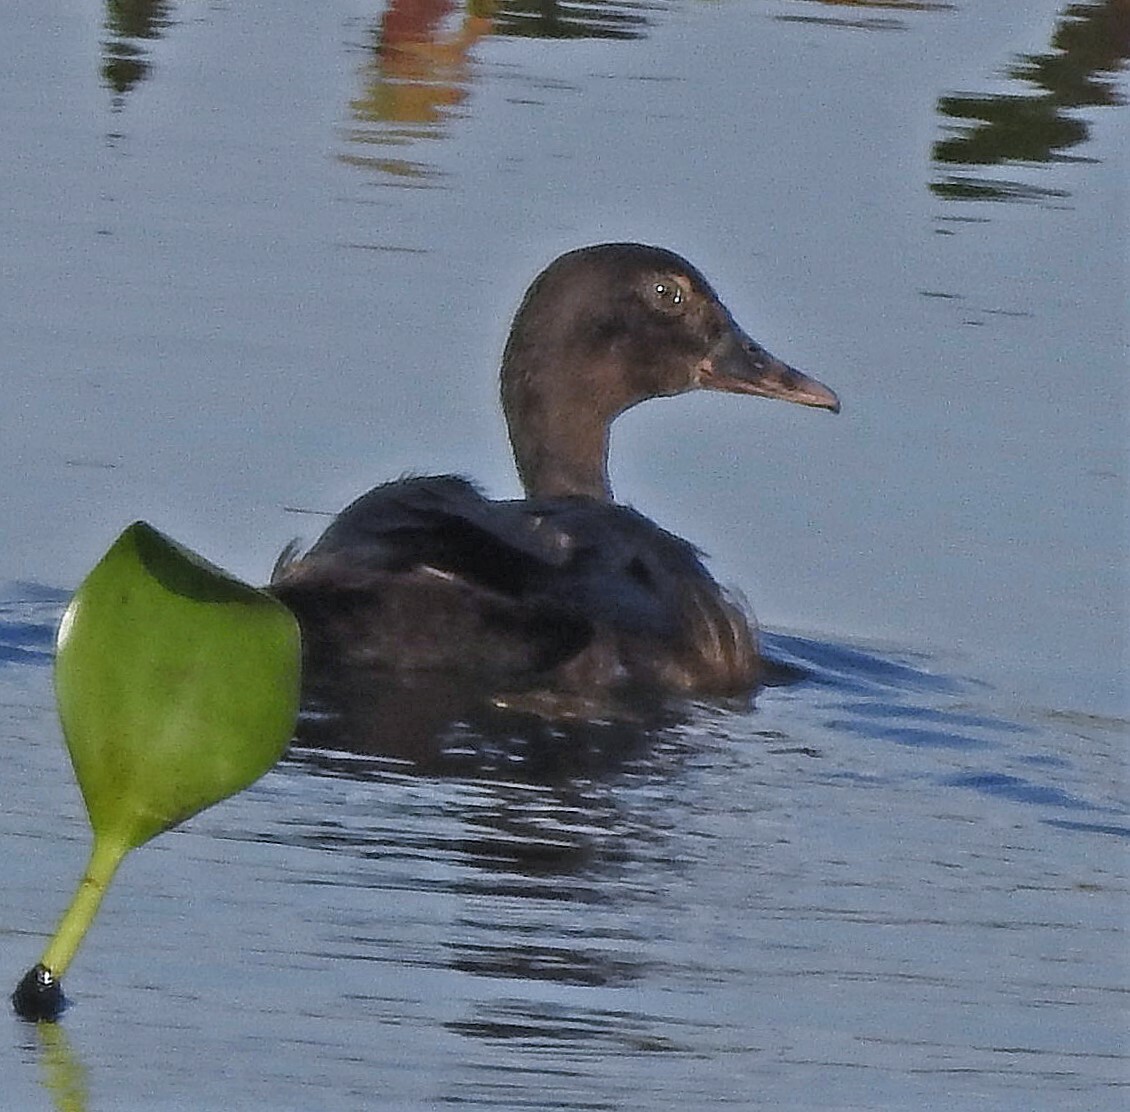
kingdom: Animalia
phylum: Chordata
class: Aves
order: Anseriformes
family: Anatidae
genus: Cairina
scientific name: Cairina moschata
